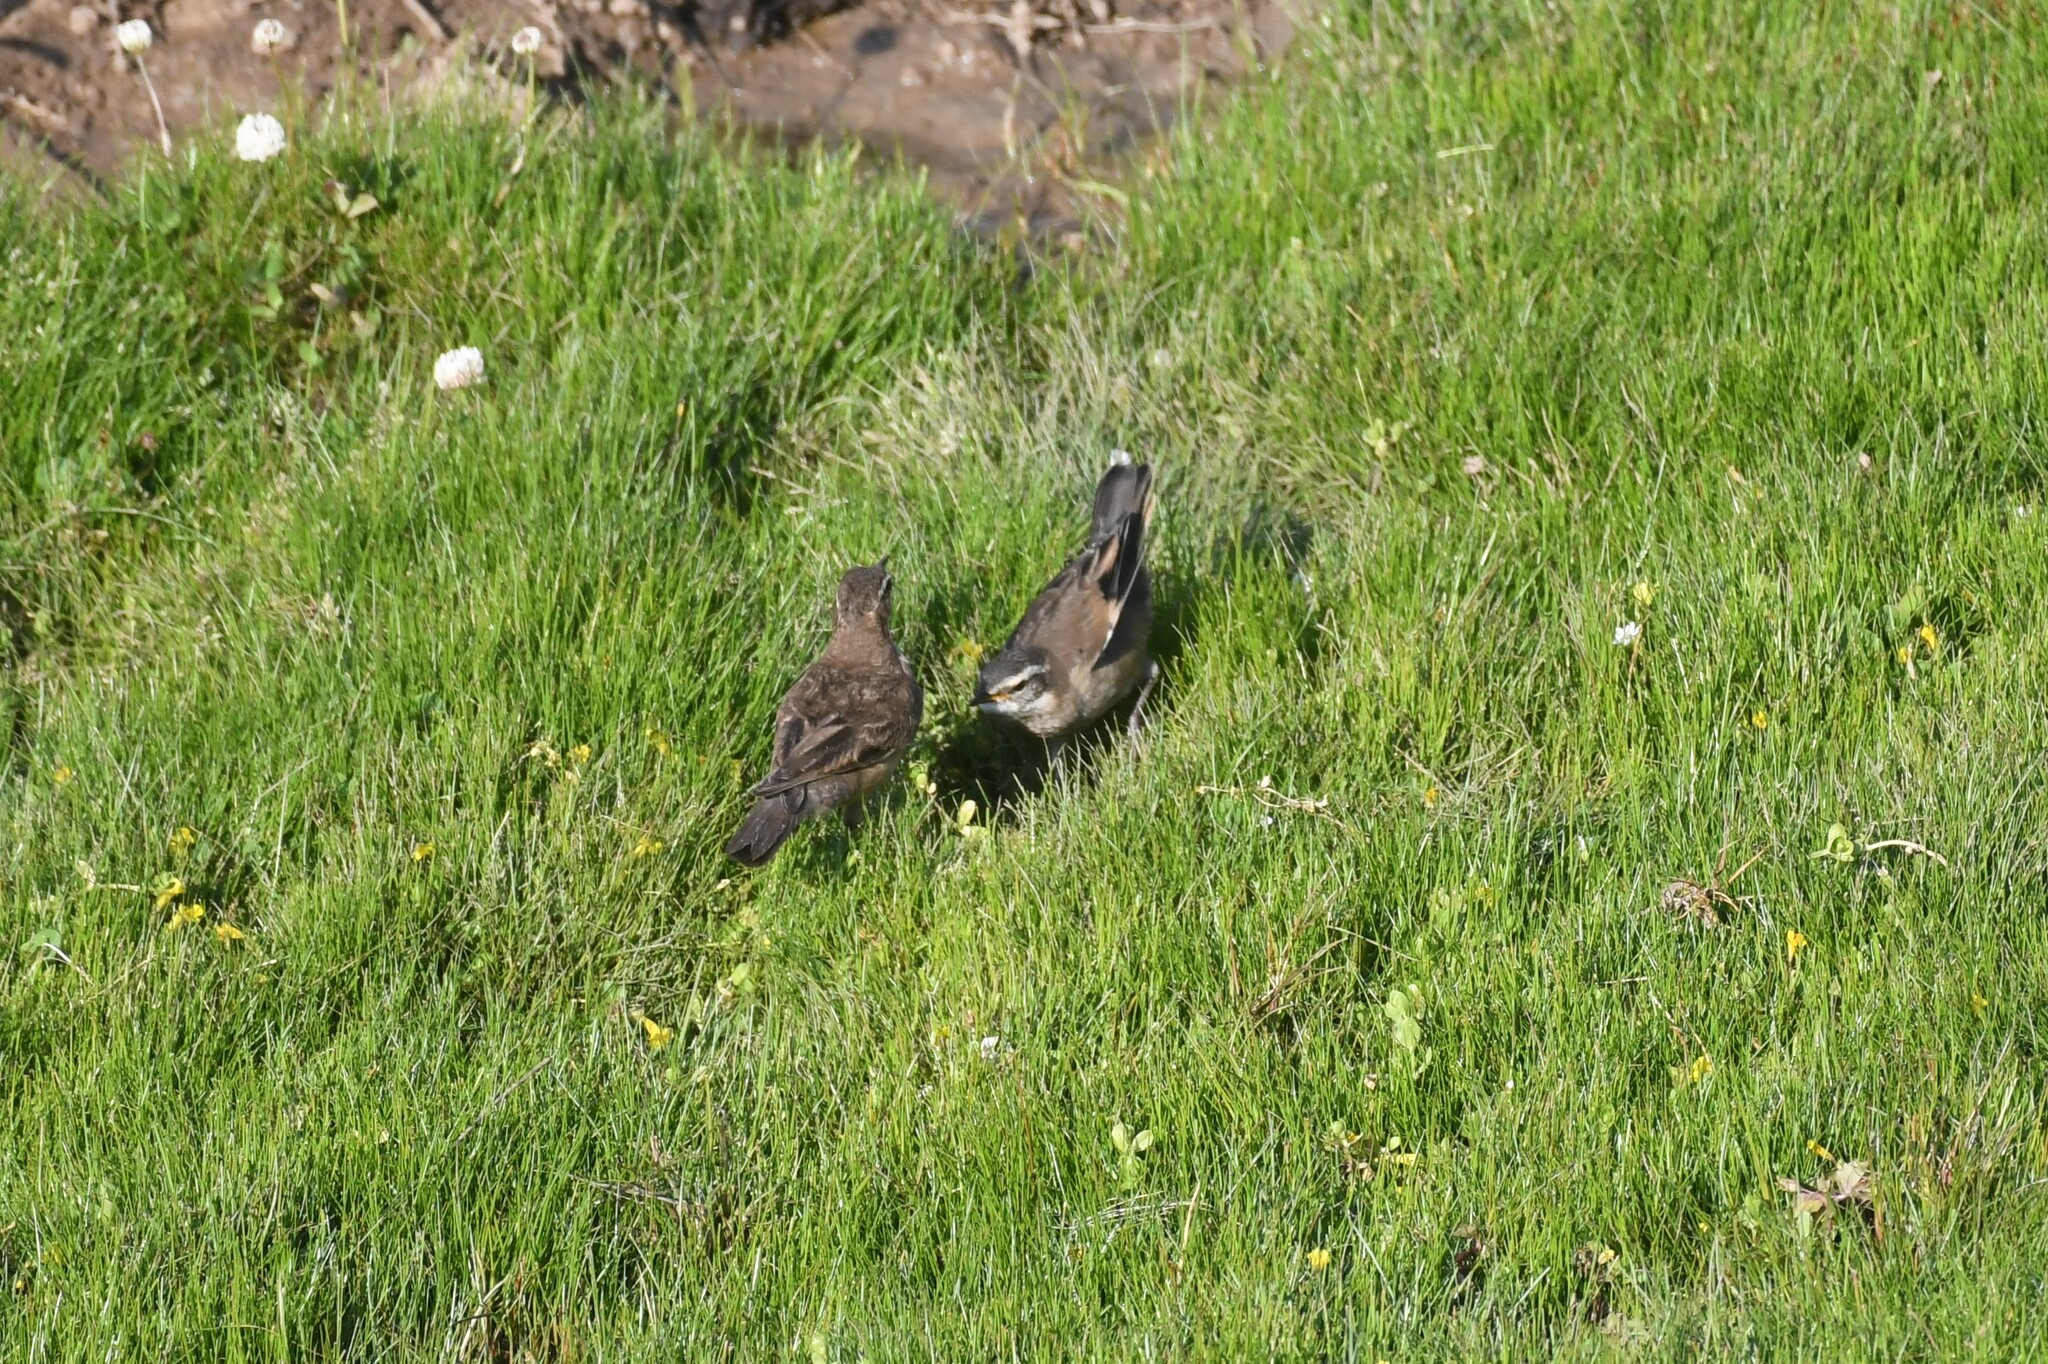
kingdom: Animalia
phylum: Chordata
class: Aves
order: Passeriformes
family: Furnariidae
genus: Cinclodes
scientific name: Cinclodes fuscus
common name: Buff-winged cinclodes
